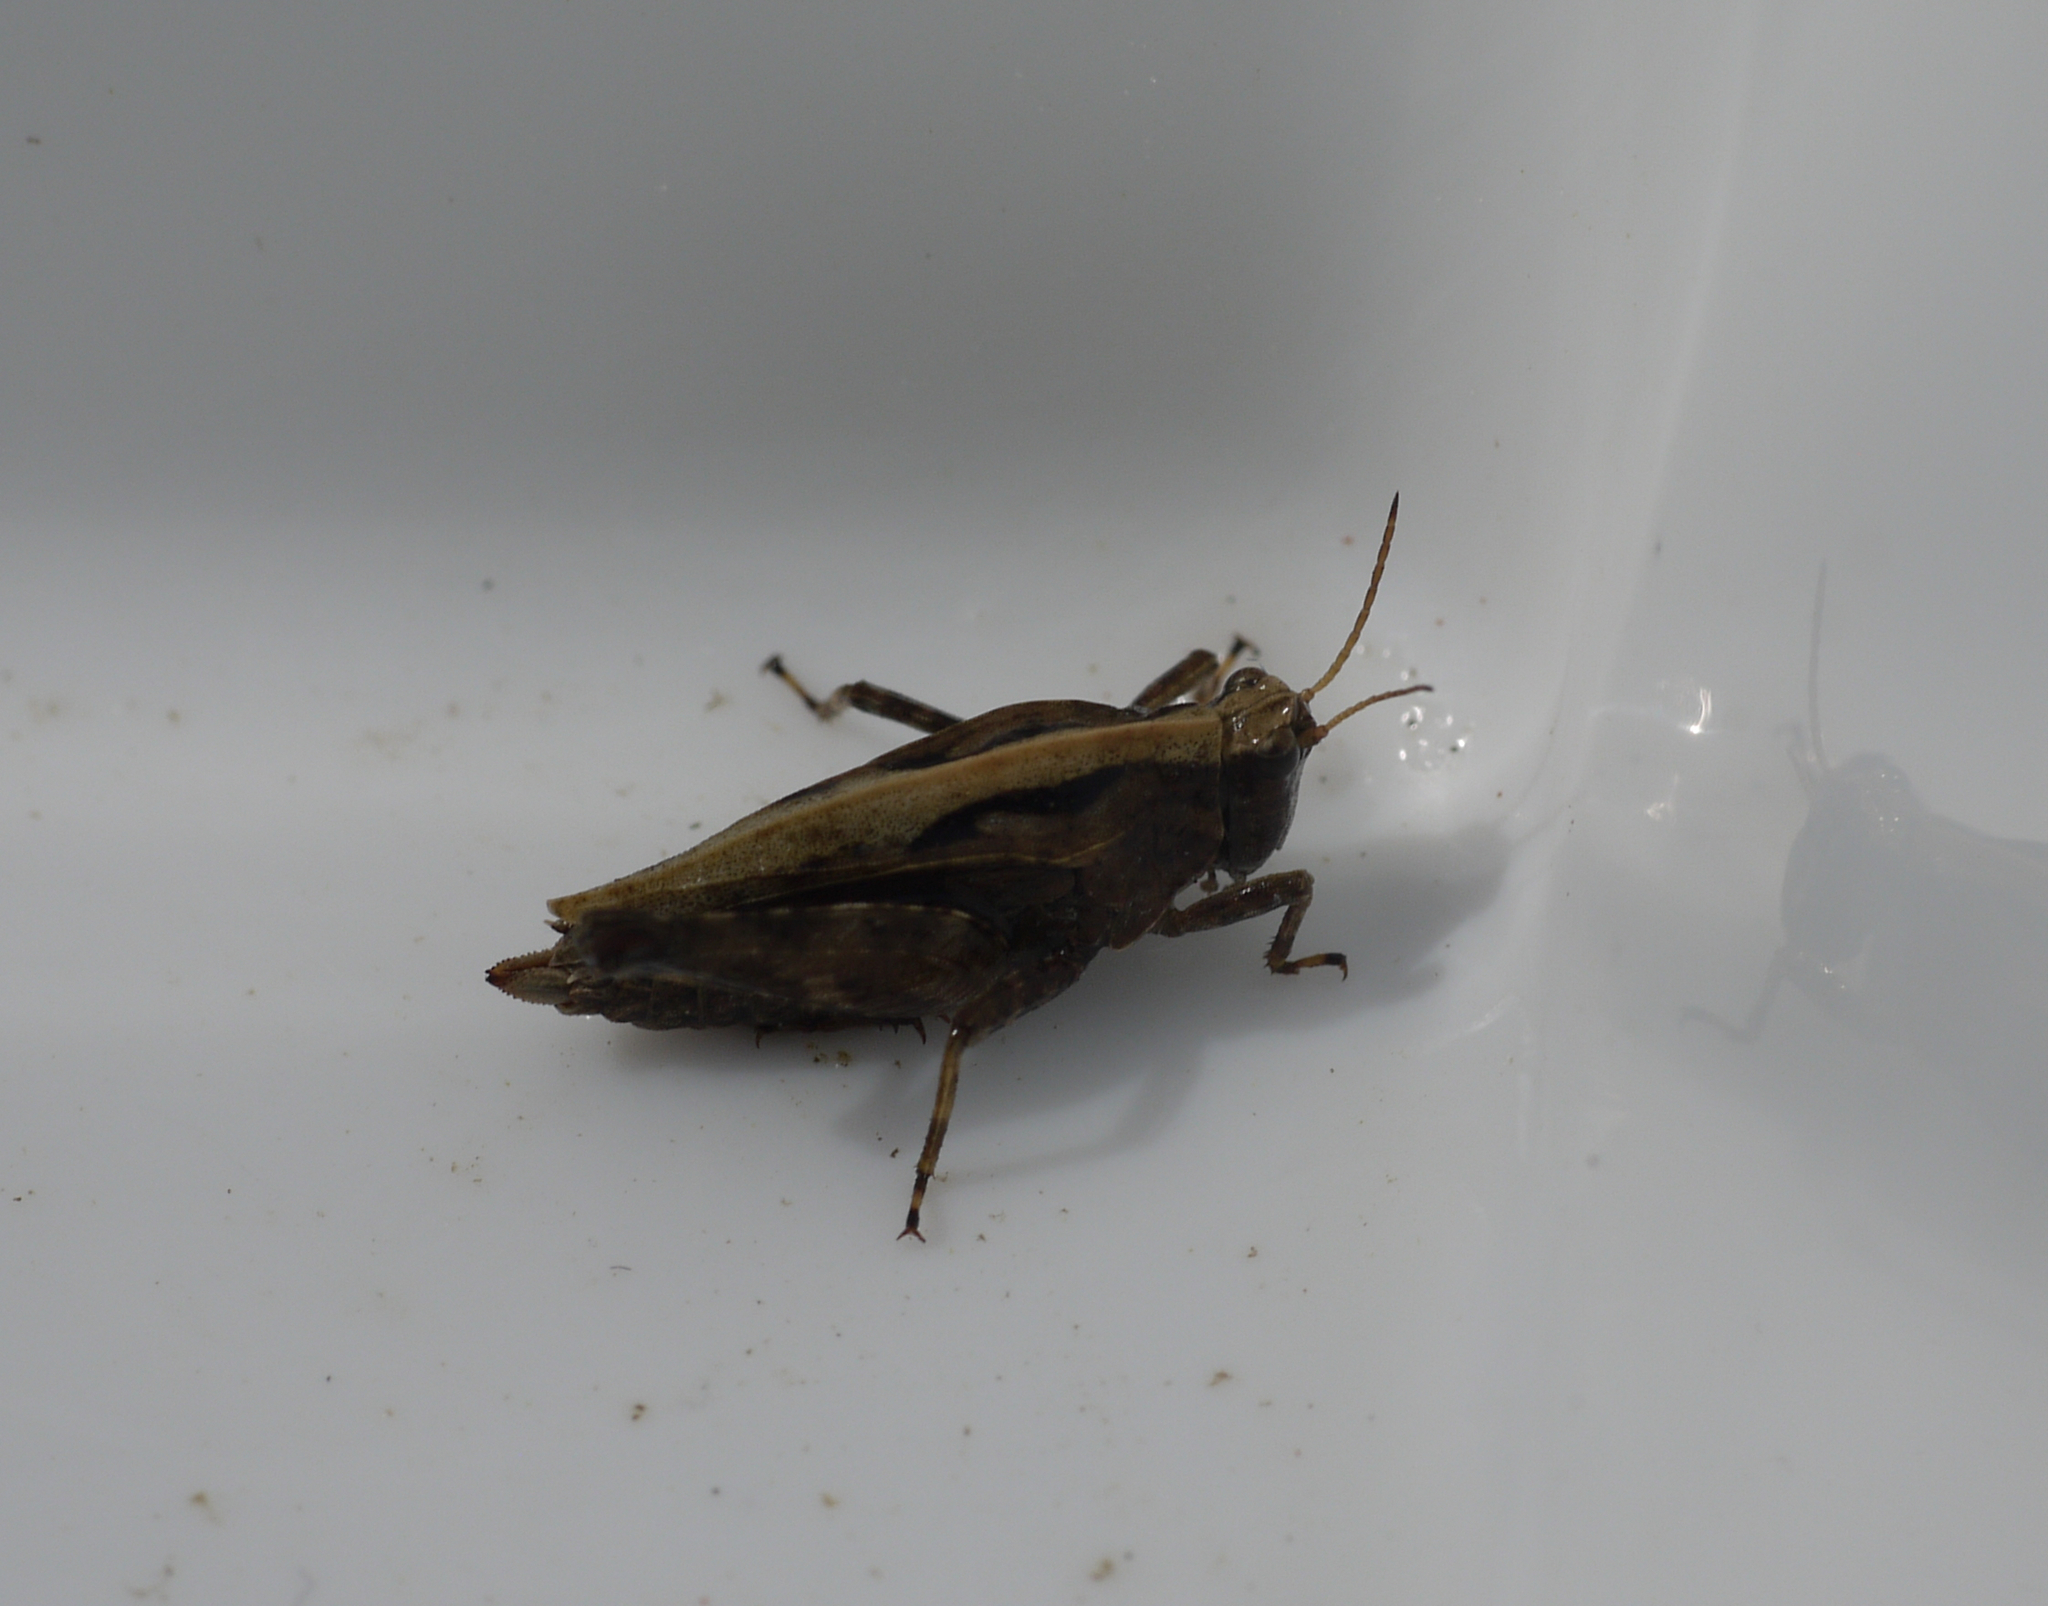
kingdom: Animalia
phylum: Arthropoda
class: Insecta
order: Orthoptera
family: Tetrigidae
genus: Tetrix
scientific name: Tetrix undulata
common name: Common groundhopper
